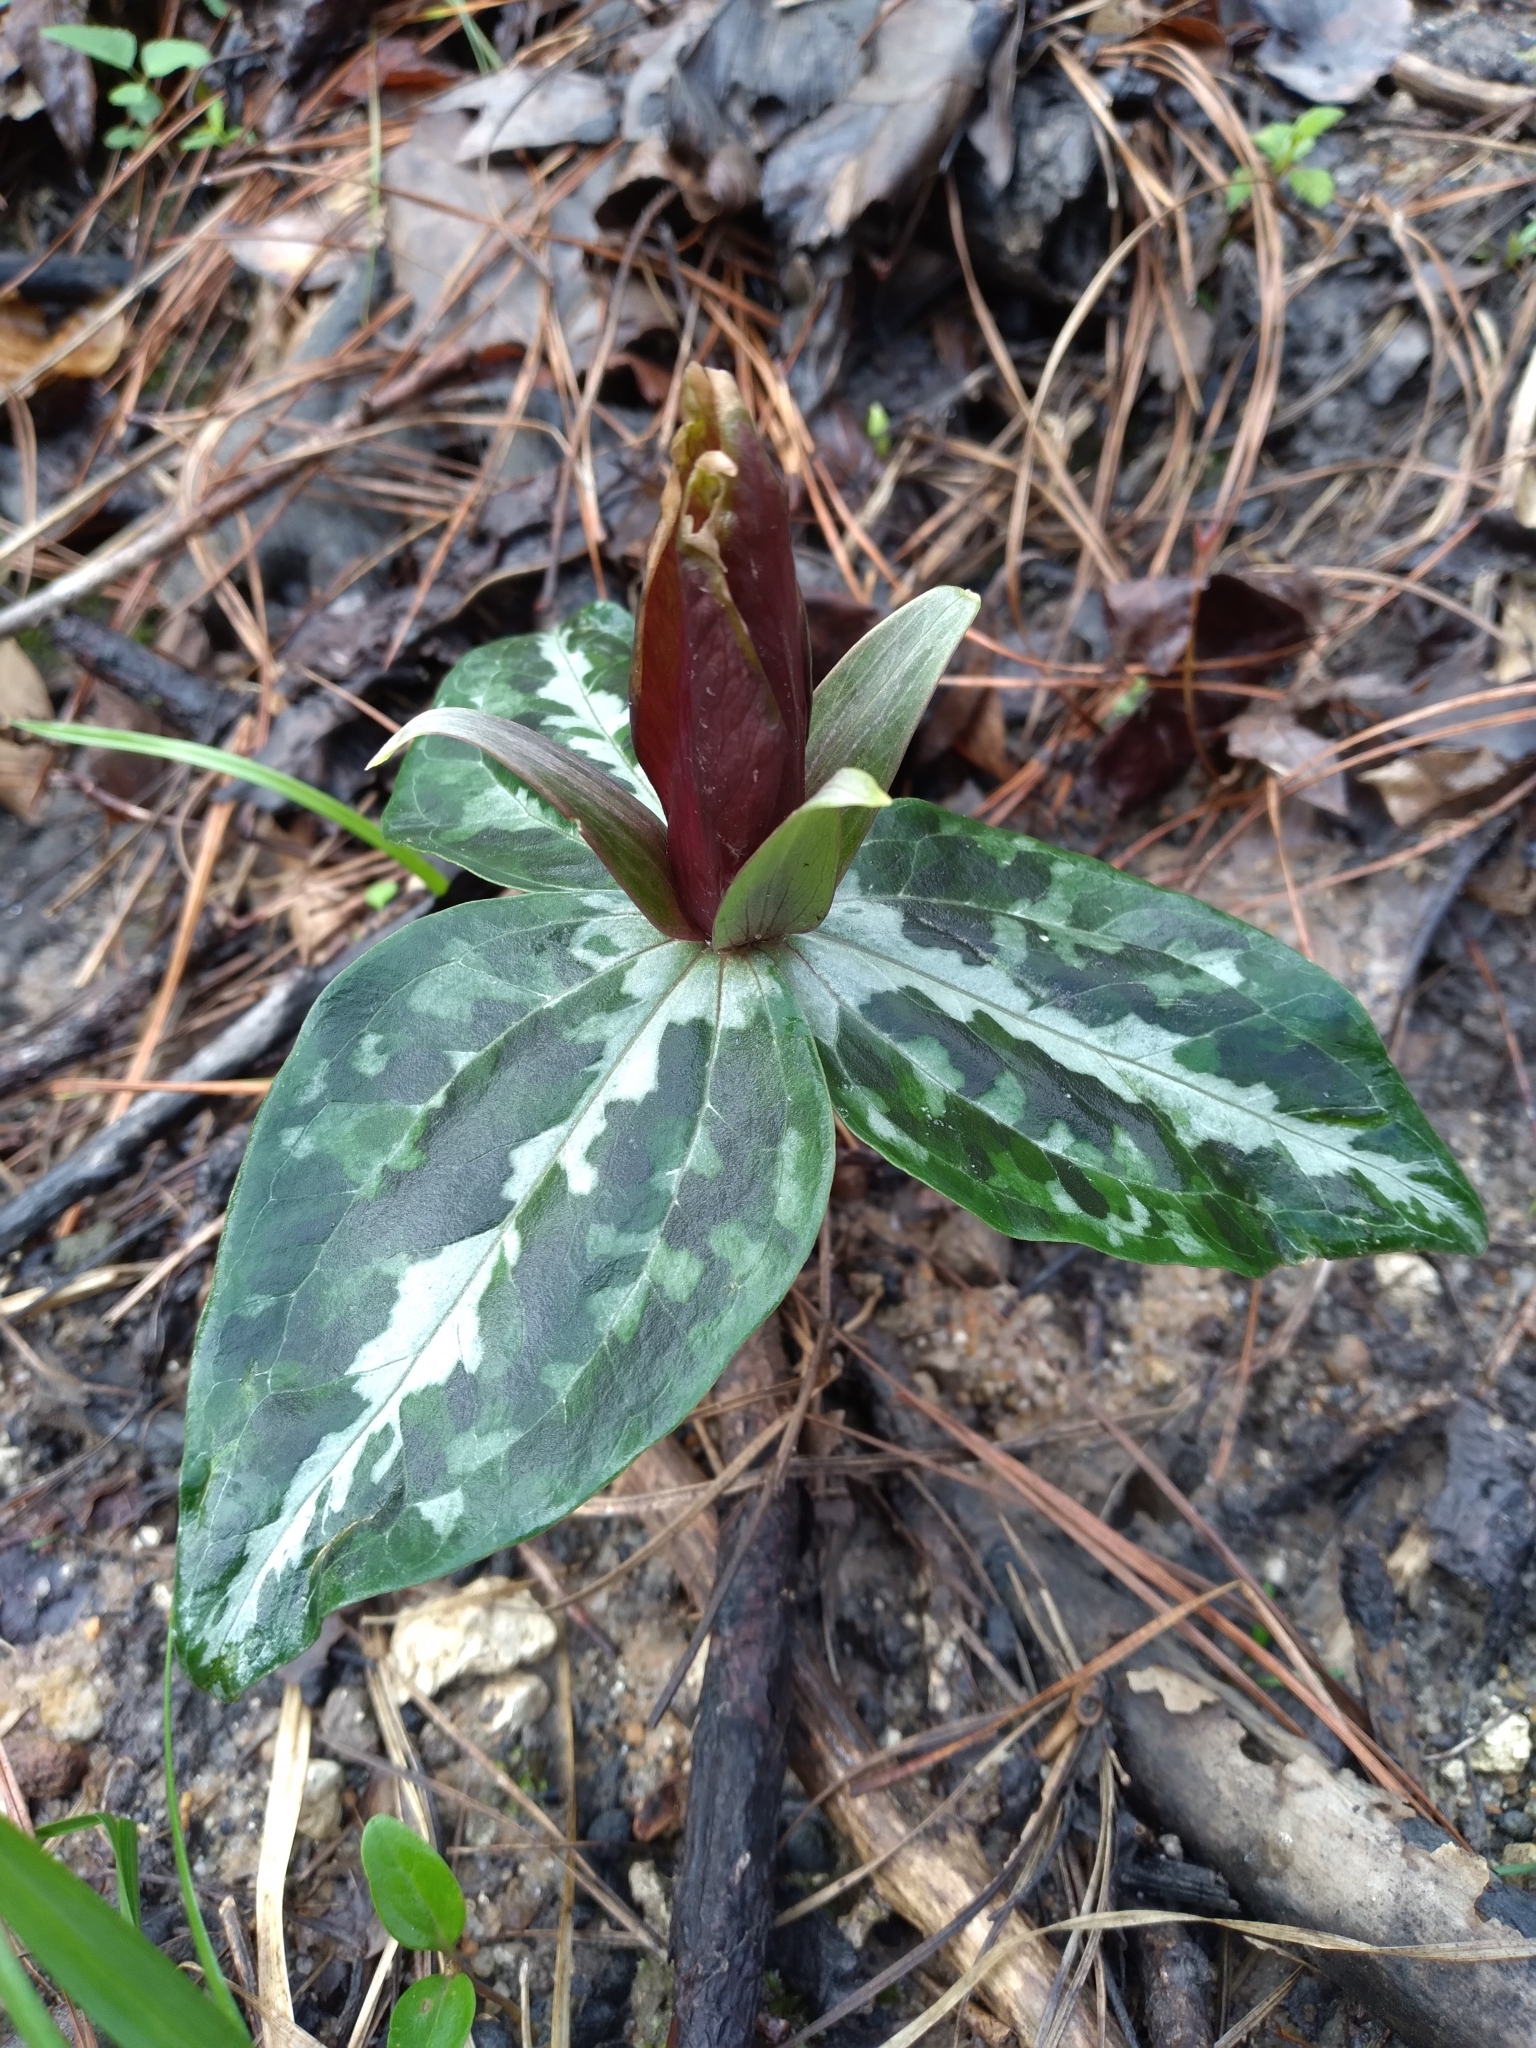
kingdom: Plantae
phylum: Tracheophyta
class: Liliopsida
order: Liliales
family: Melanthiaceae
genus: Trillium
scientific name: Trillium underwoodii
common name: Longbract wakerobin
